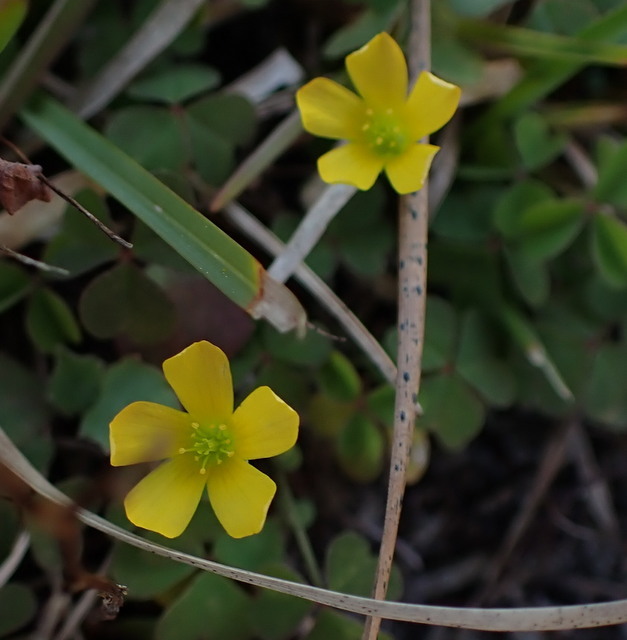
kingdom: Plantae
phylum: Tracheophyta
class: Magnoliopsida
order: Oxalidales
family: Oxalidaceae
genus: Oxalis
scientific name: Oxalis corniculata
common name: Procumbent yellow-sorrel
